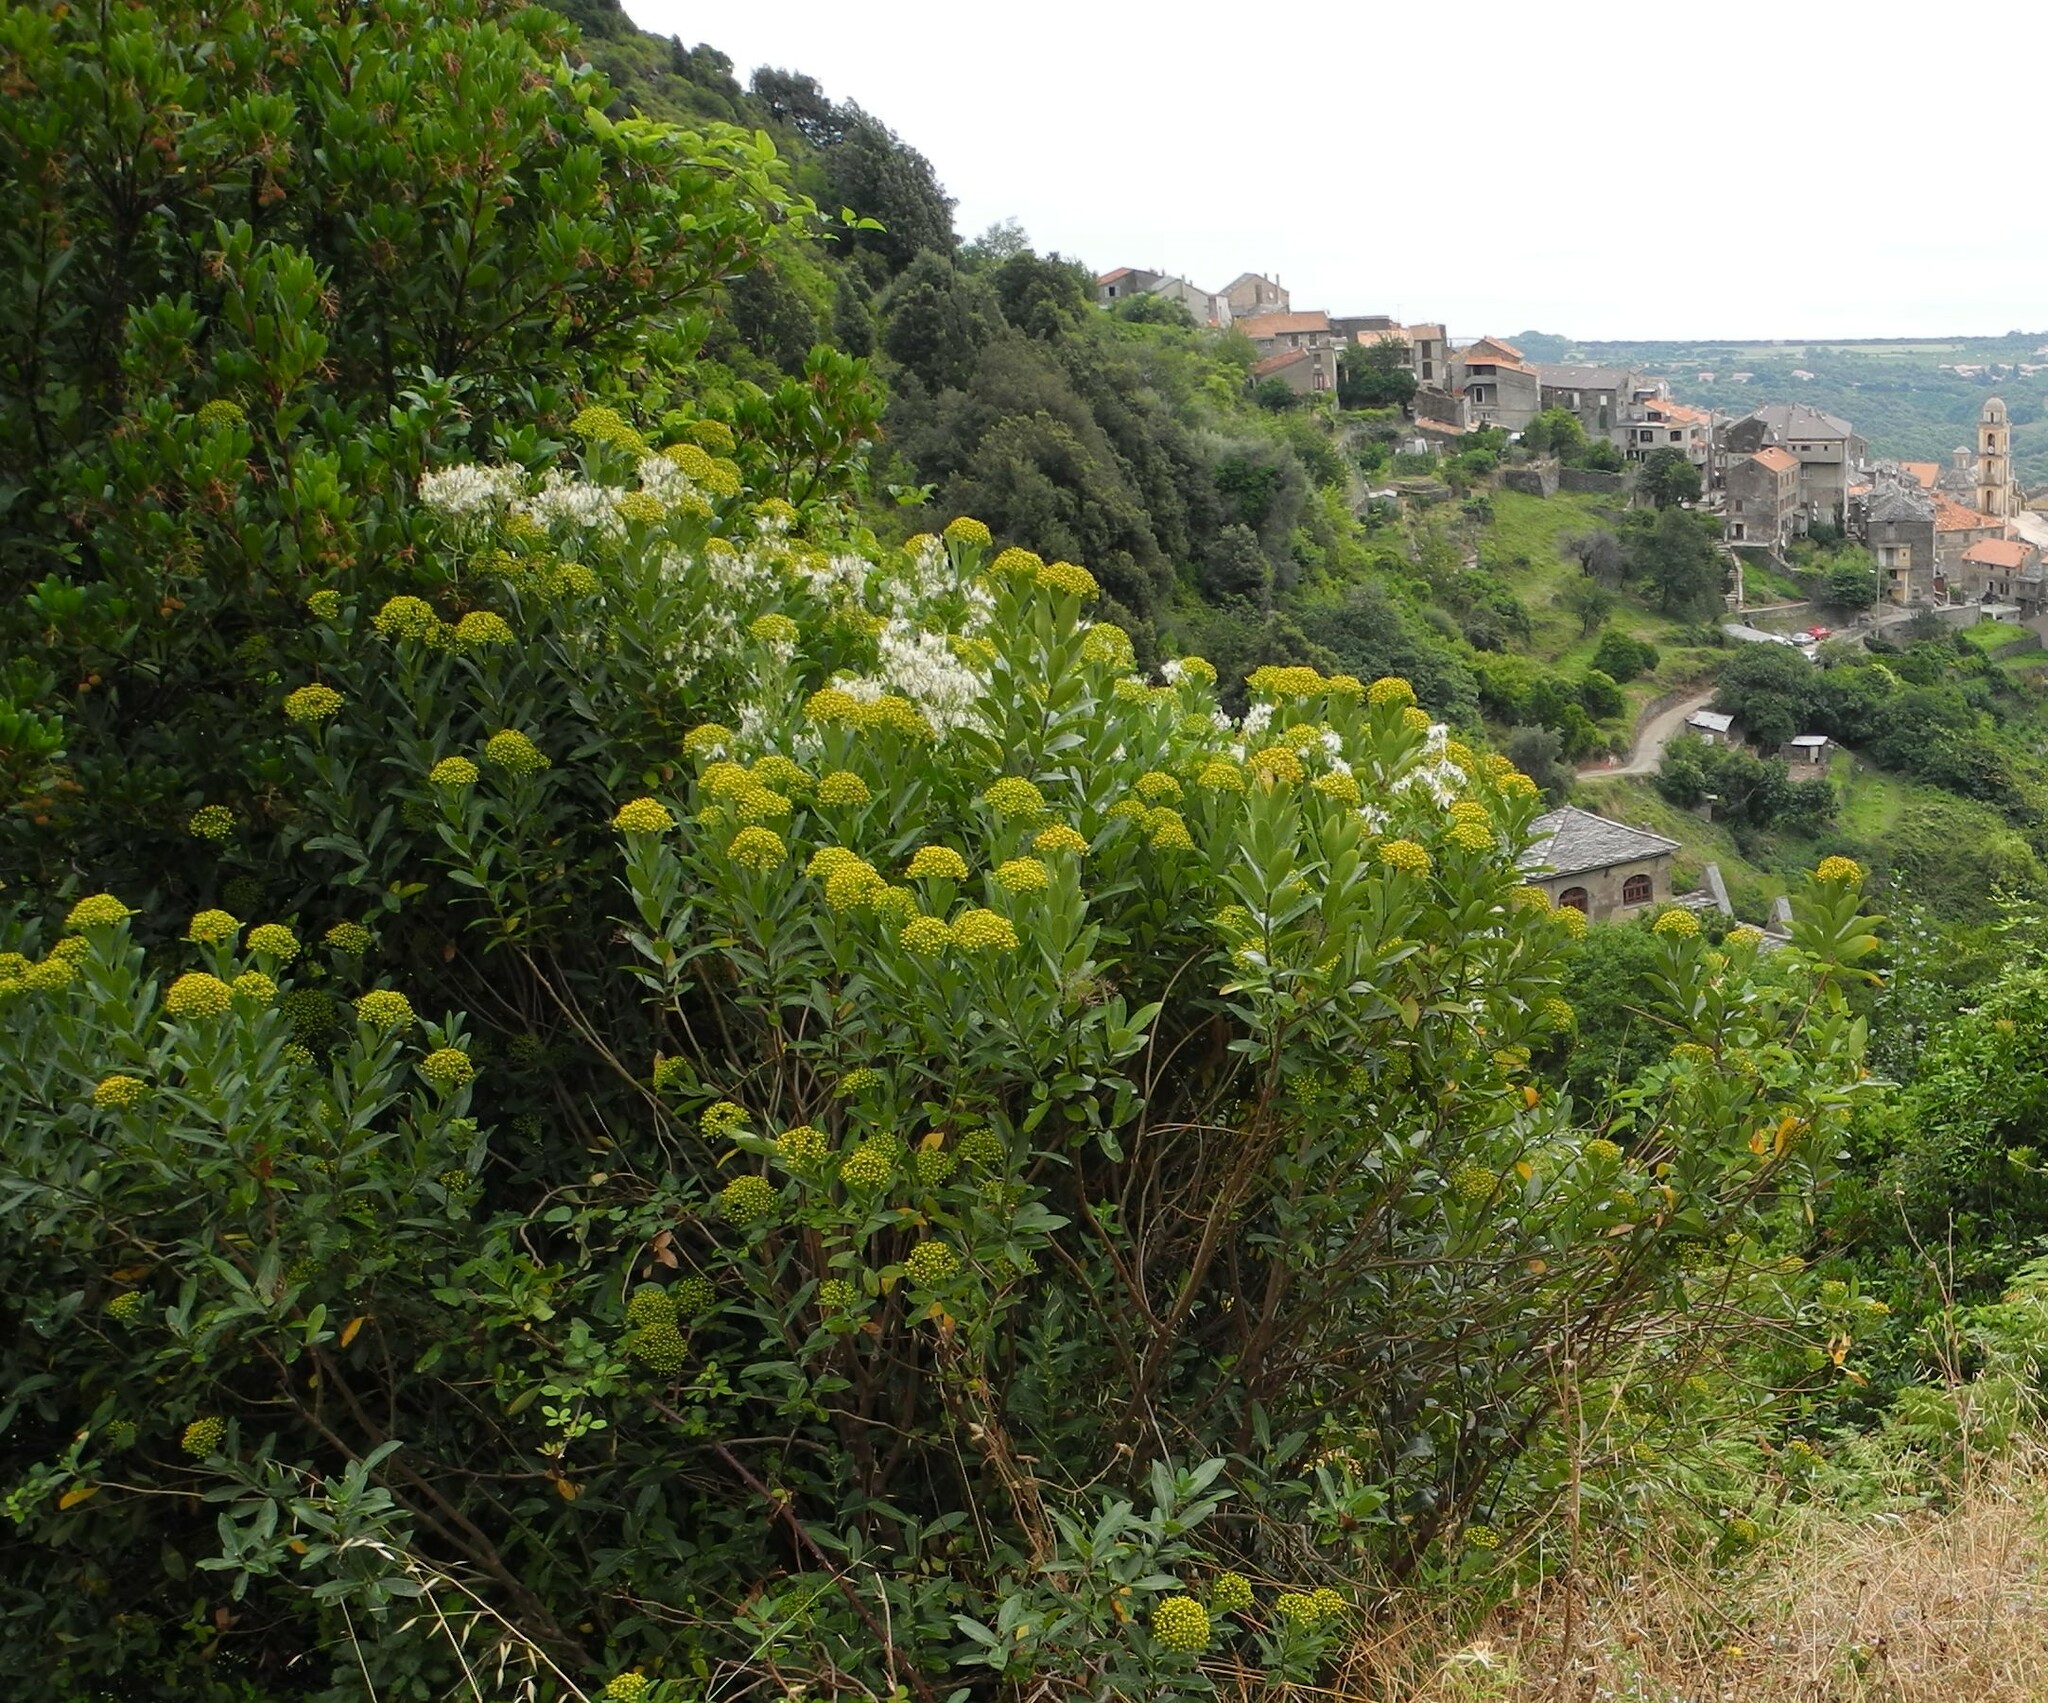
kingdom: Plantae
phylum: Tracheophyta
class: Magnoliopsida
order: Apiales
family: Apiaceae
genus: Bupleurum
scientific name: Bupleurum fruticosum
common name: Shrubby hare's-ear
